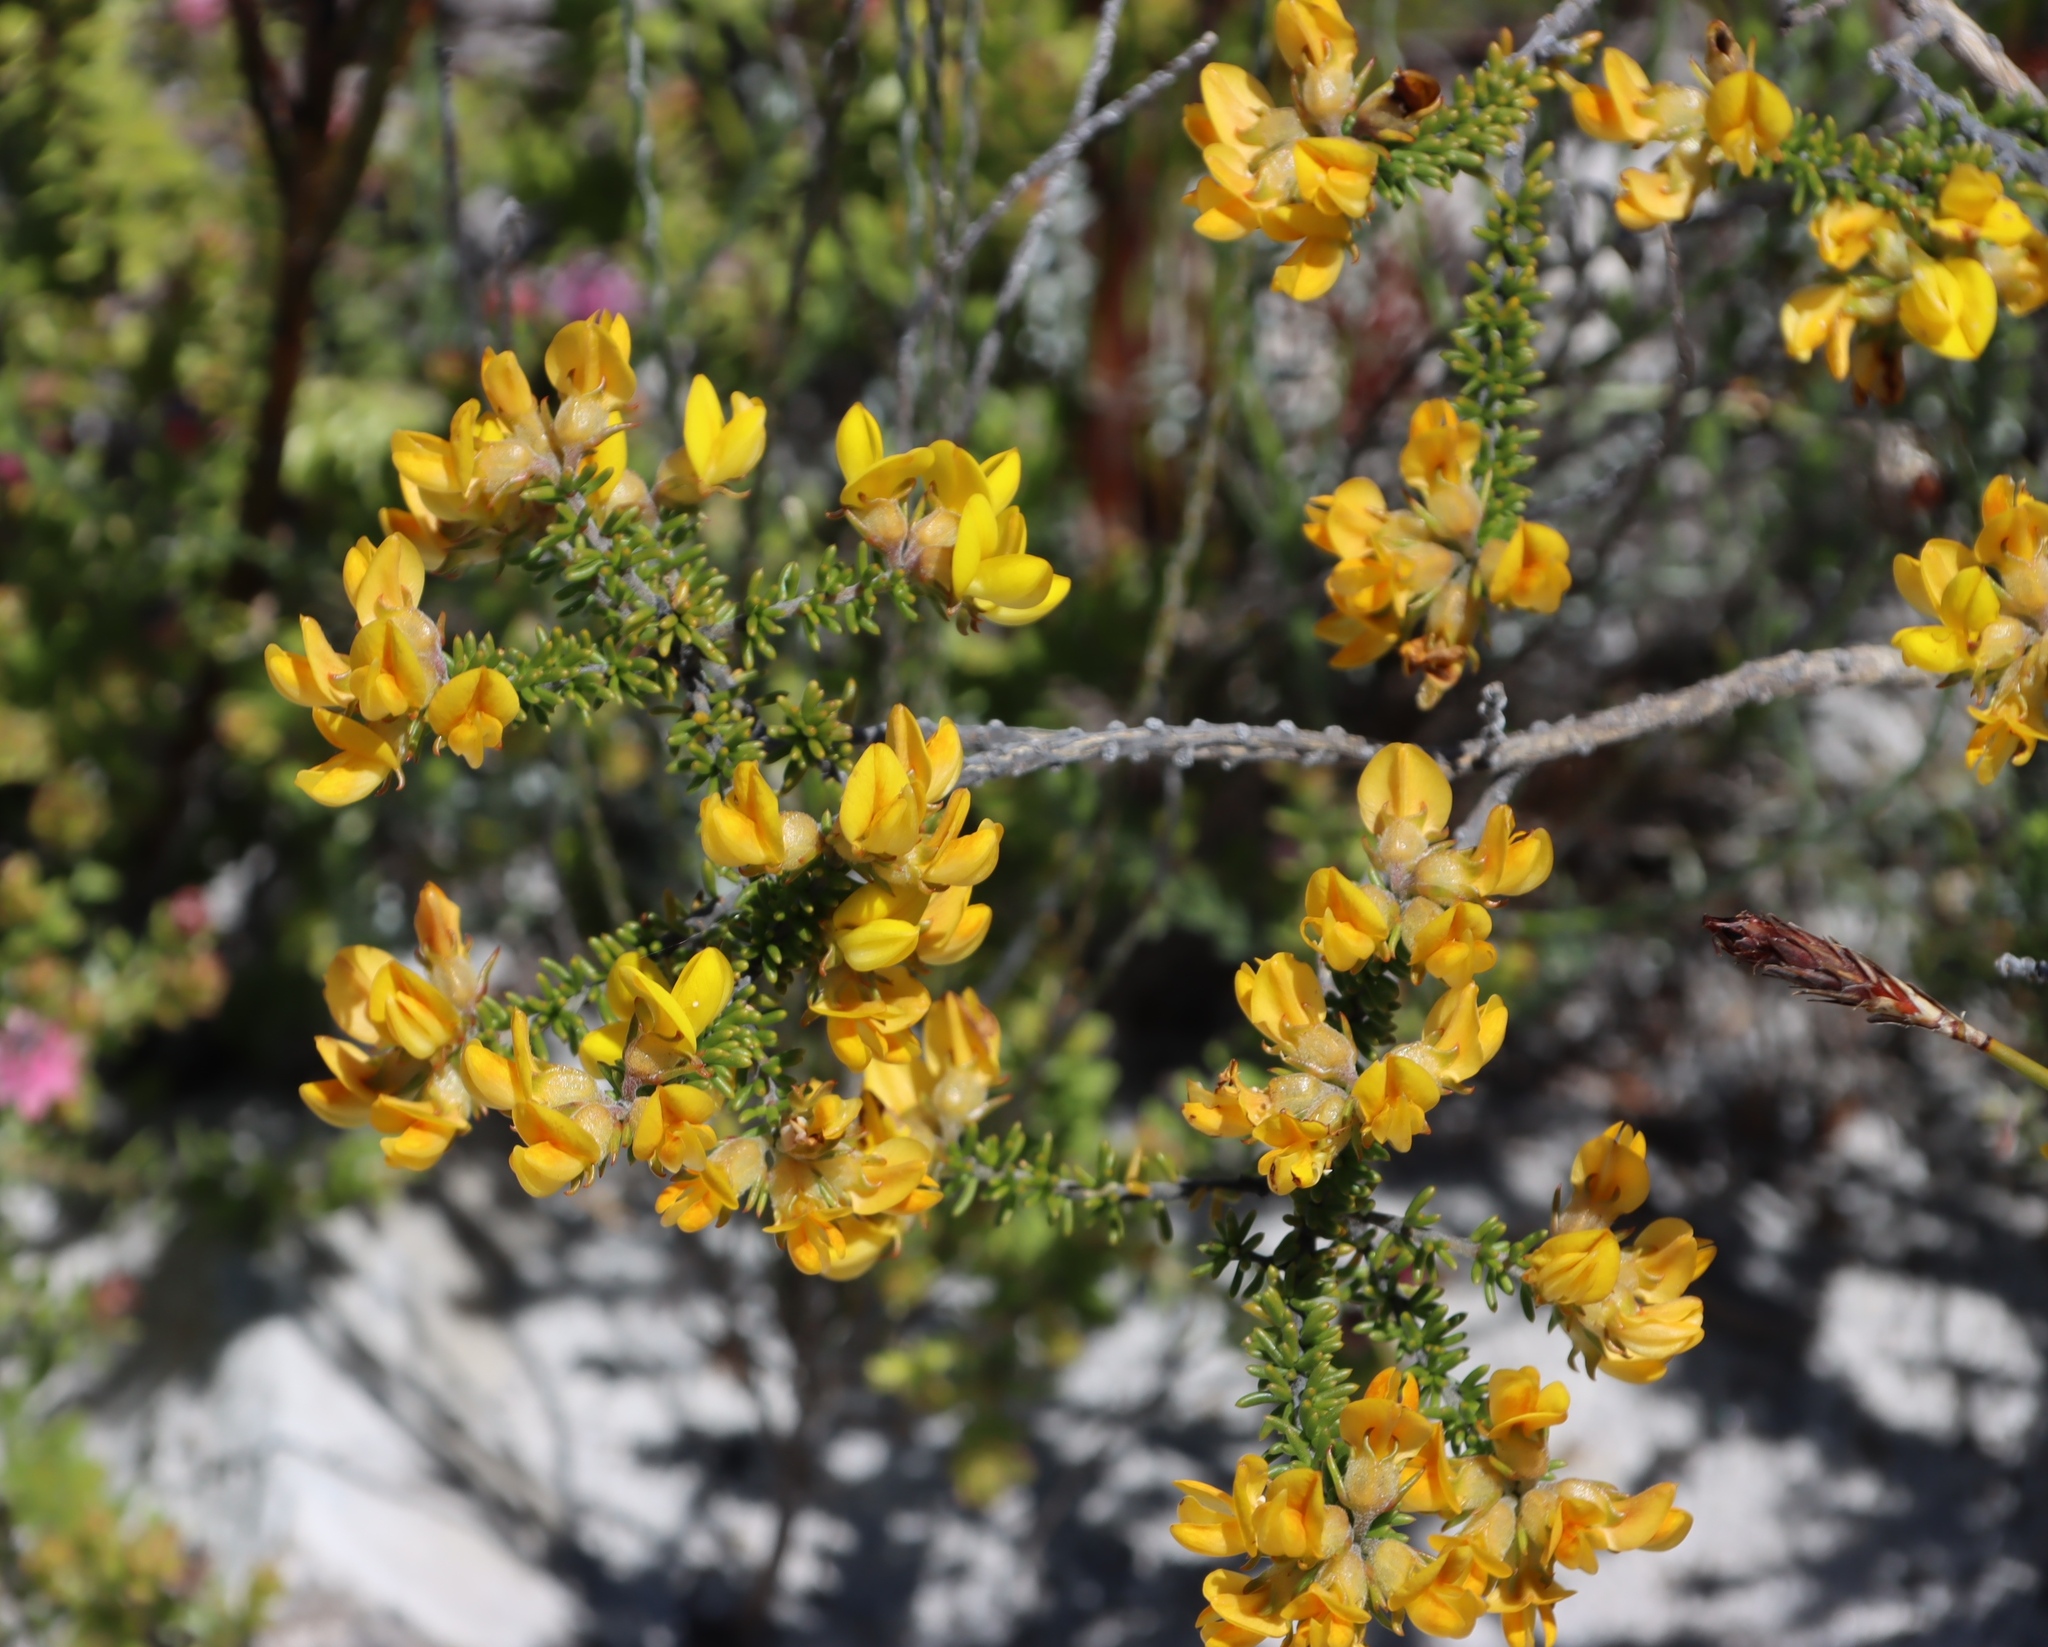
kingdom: Plantae
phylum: Tracheophyta
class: Magnoliopsida
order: Fabales
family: Fabaceae
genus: Aspalathus
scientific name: Aspalathus carnosa
